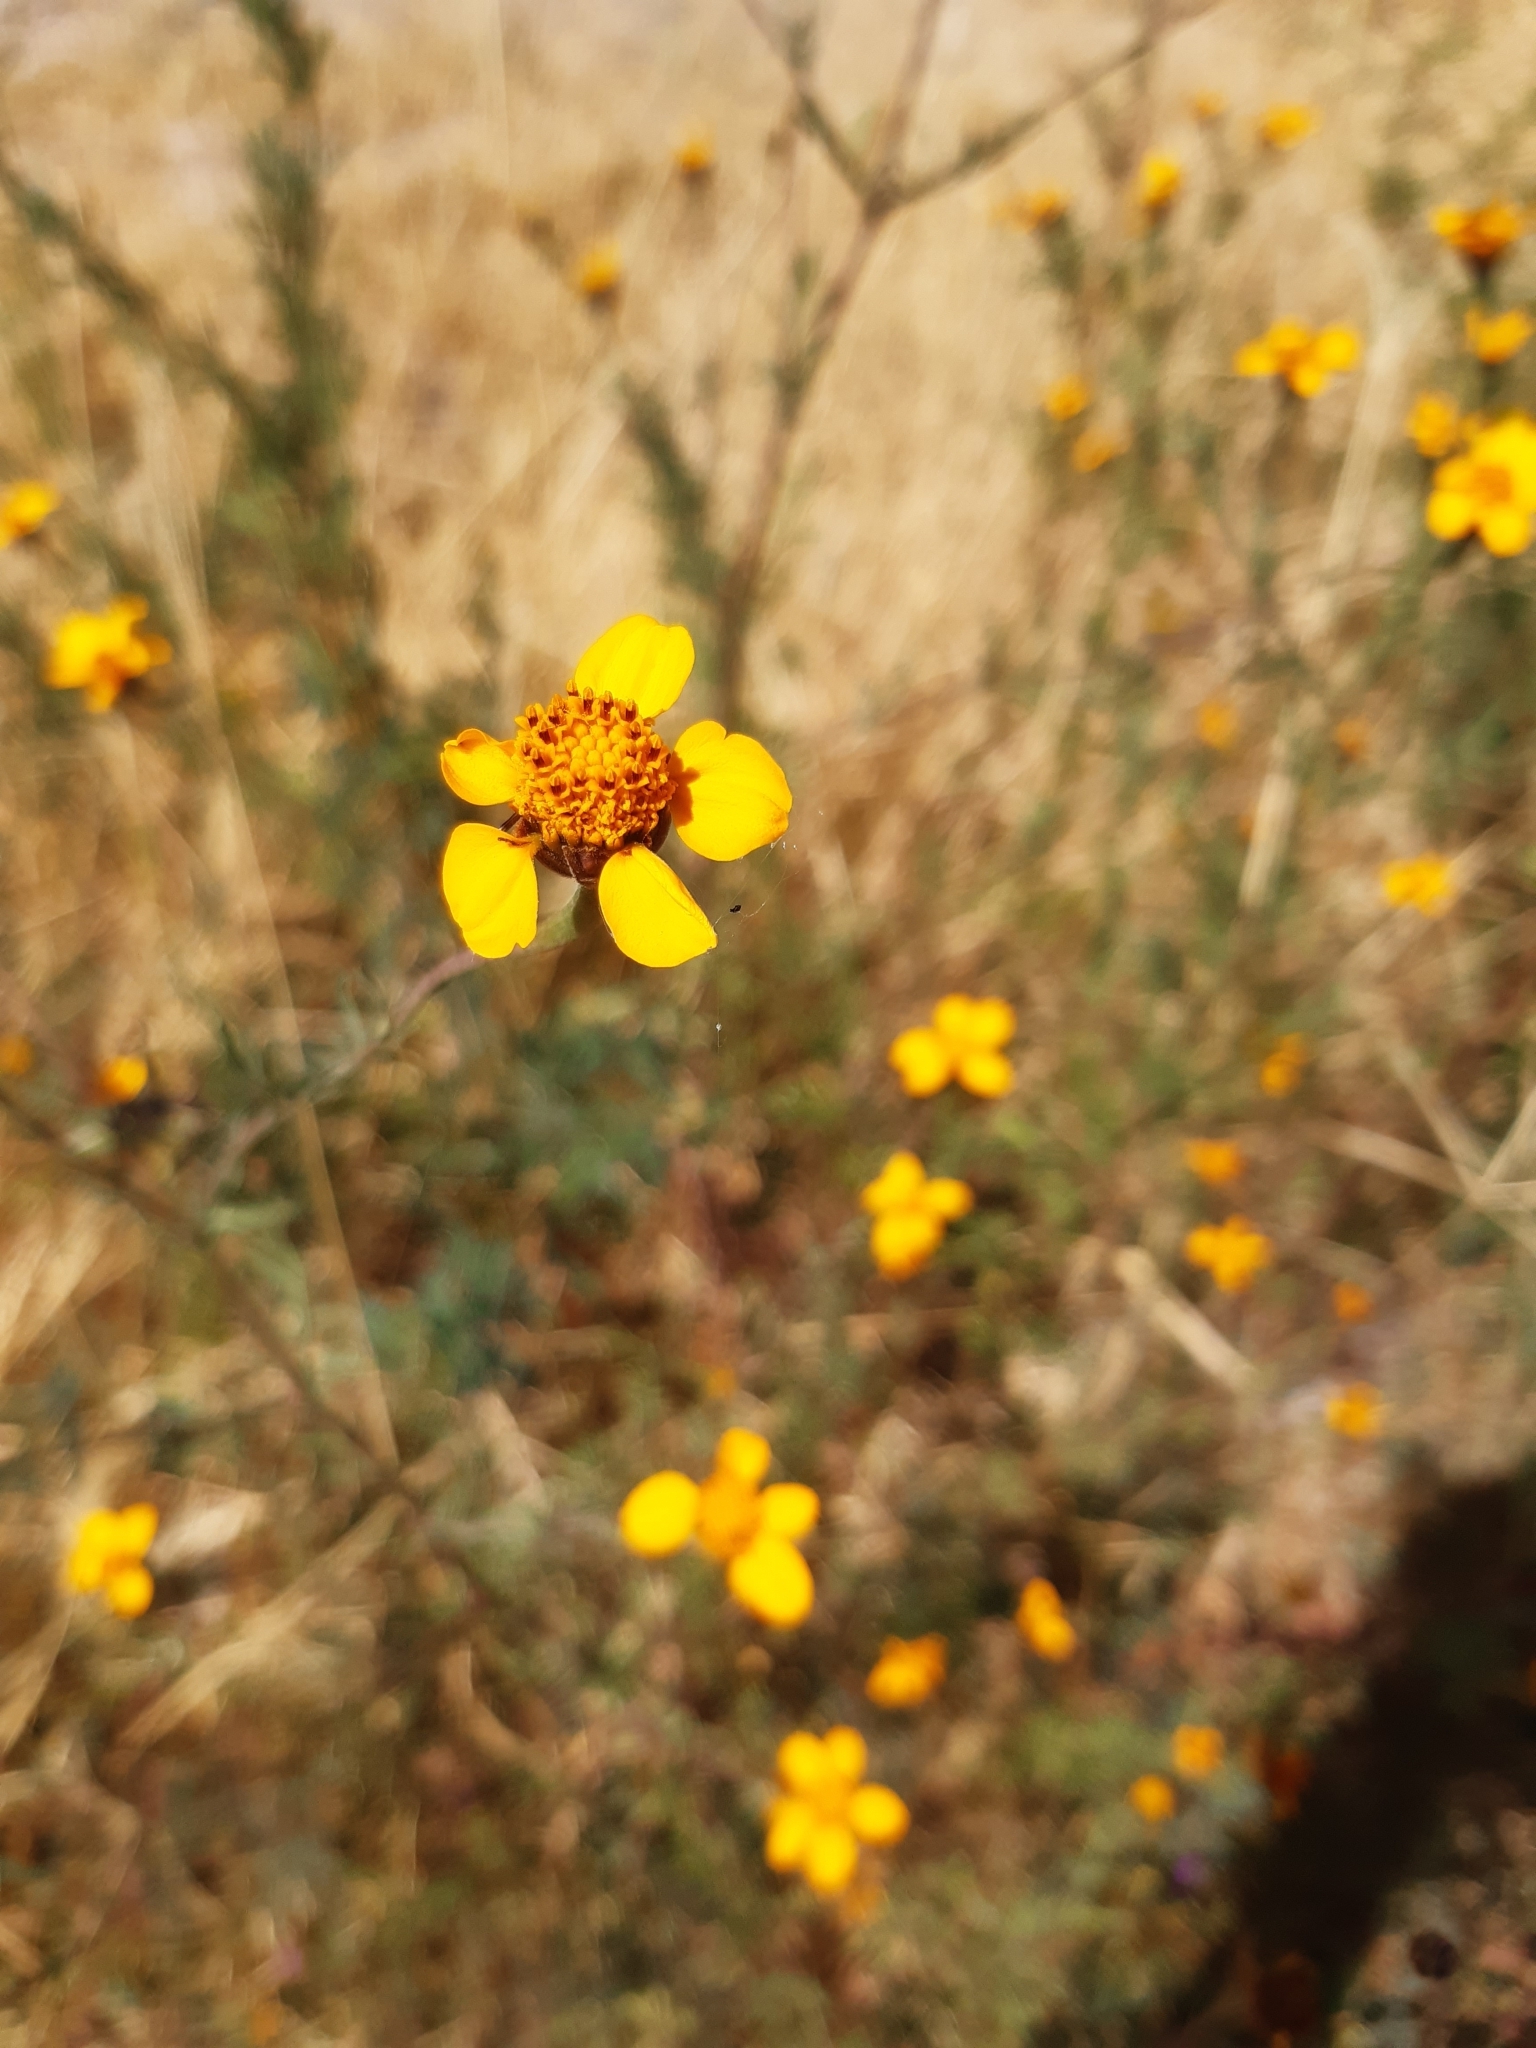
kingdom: Plantae
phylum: Tracheophyta
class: Magnoliopsida
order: Asterales
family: Asteraceae
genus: Dyssodia
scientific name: Dyssodia tagetiflora
